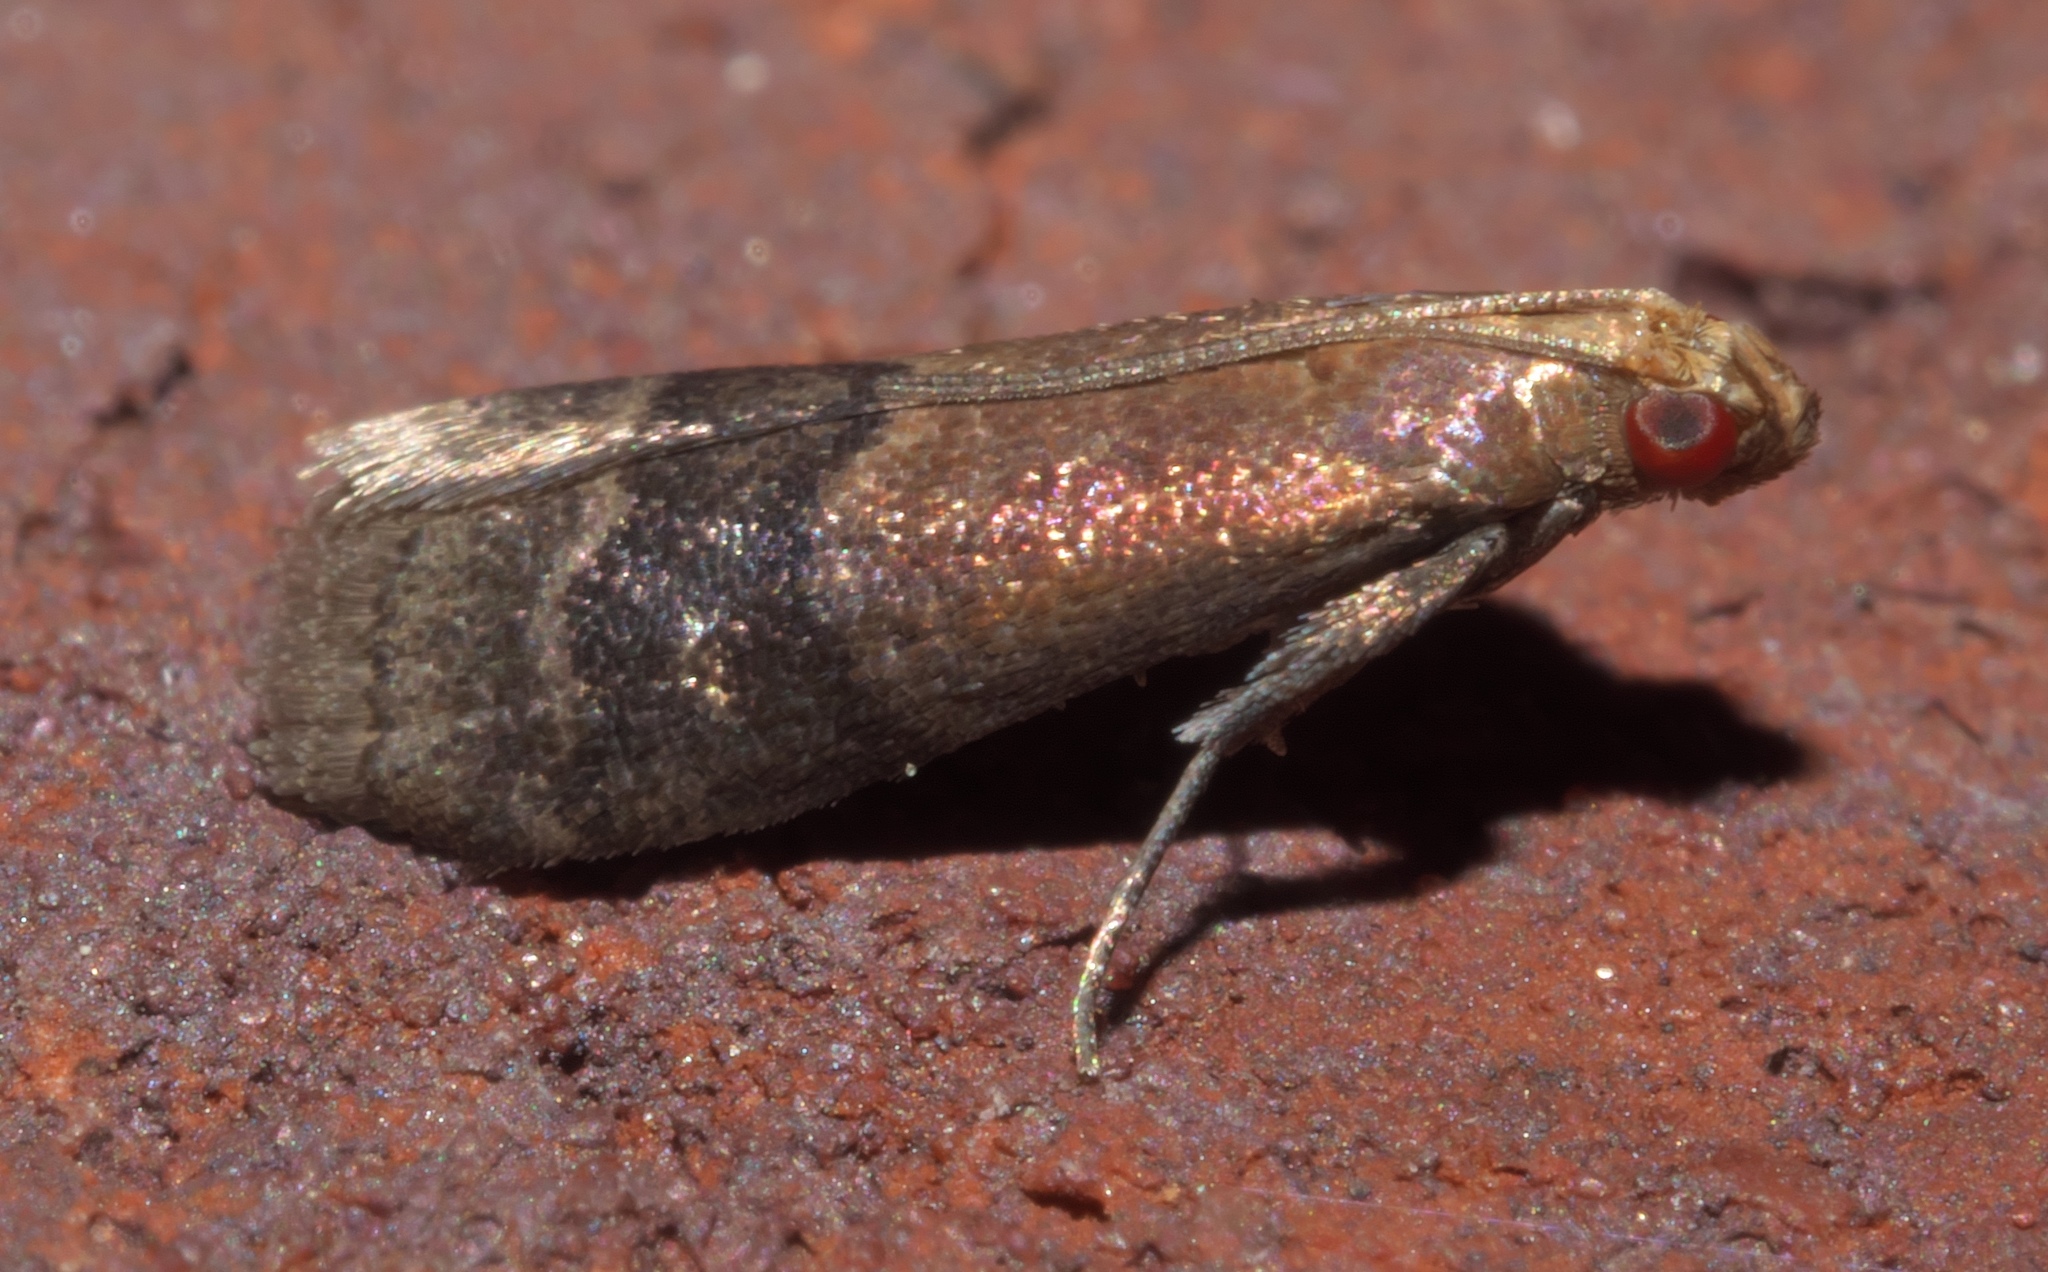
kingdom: Animalia
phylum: Arthropoda
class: Insecta
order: Lepidoptera
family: Pyralidae
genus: Eulogia
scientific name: Eulogia ochrifrontella
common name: Broad-banded eulogia moth
